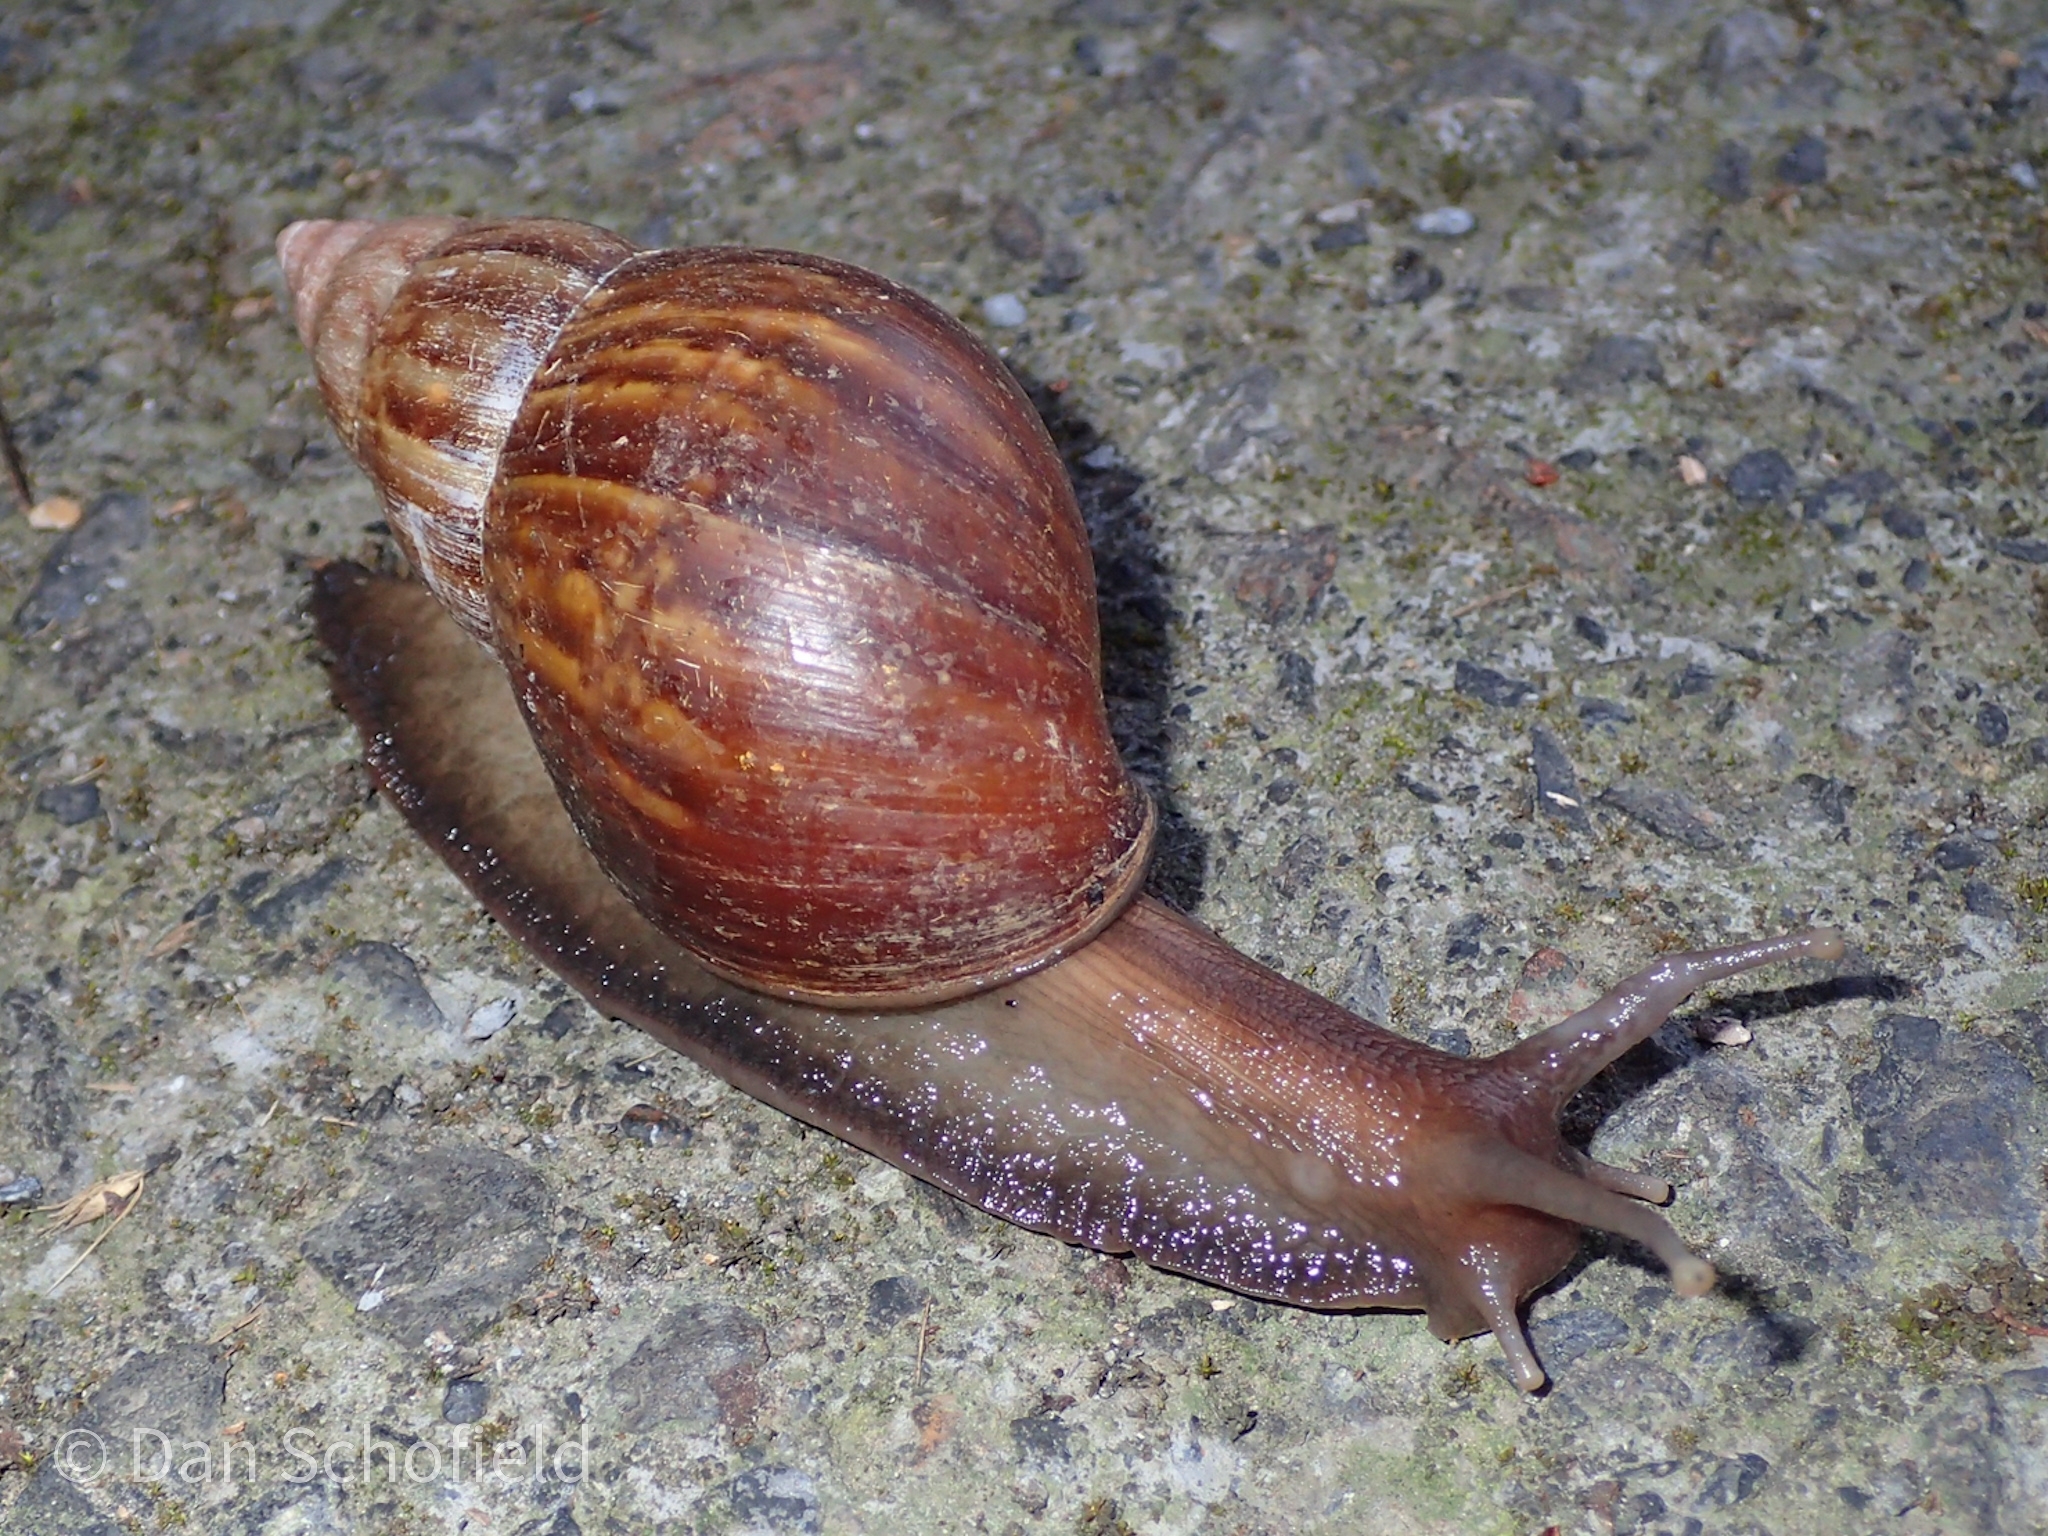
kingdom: Animalia
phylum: Mollusca
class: Gastropoda
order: Stylommatophora
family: Achatinidae
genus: Lissachatina
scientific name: Lissachatina fulica
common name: Giant african snail
